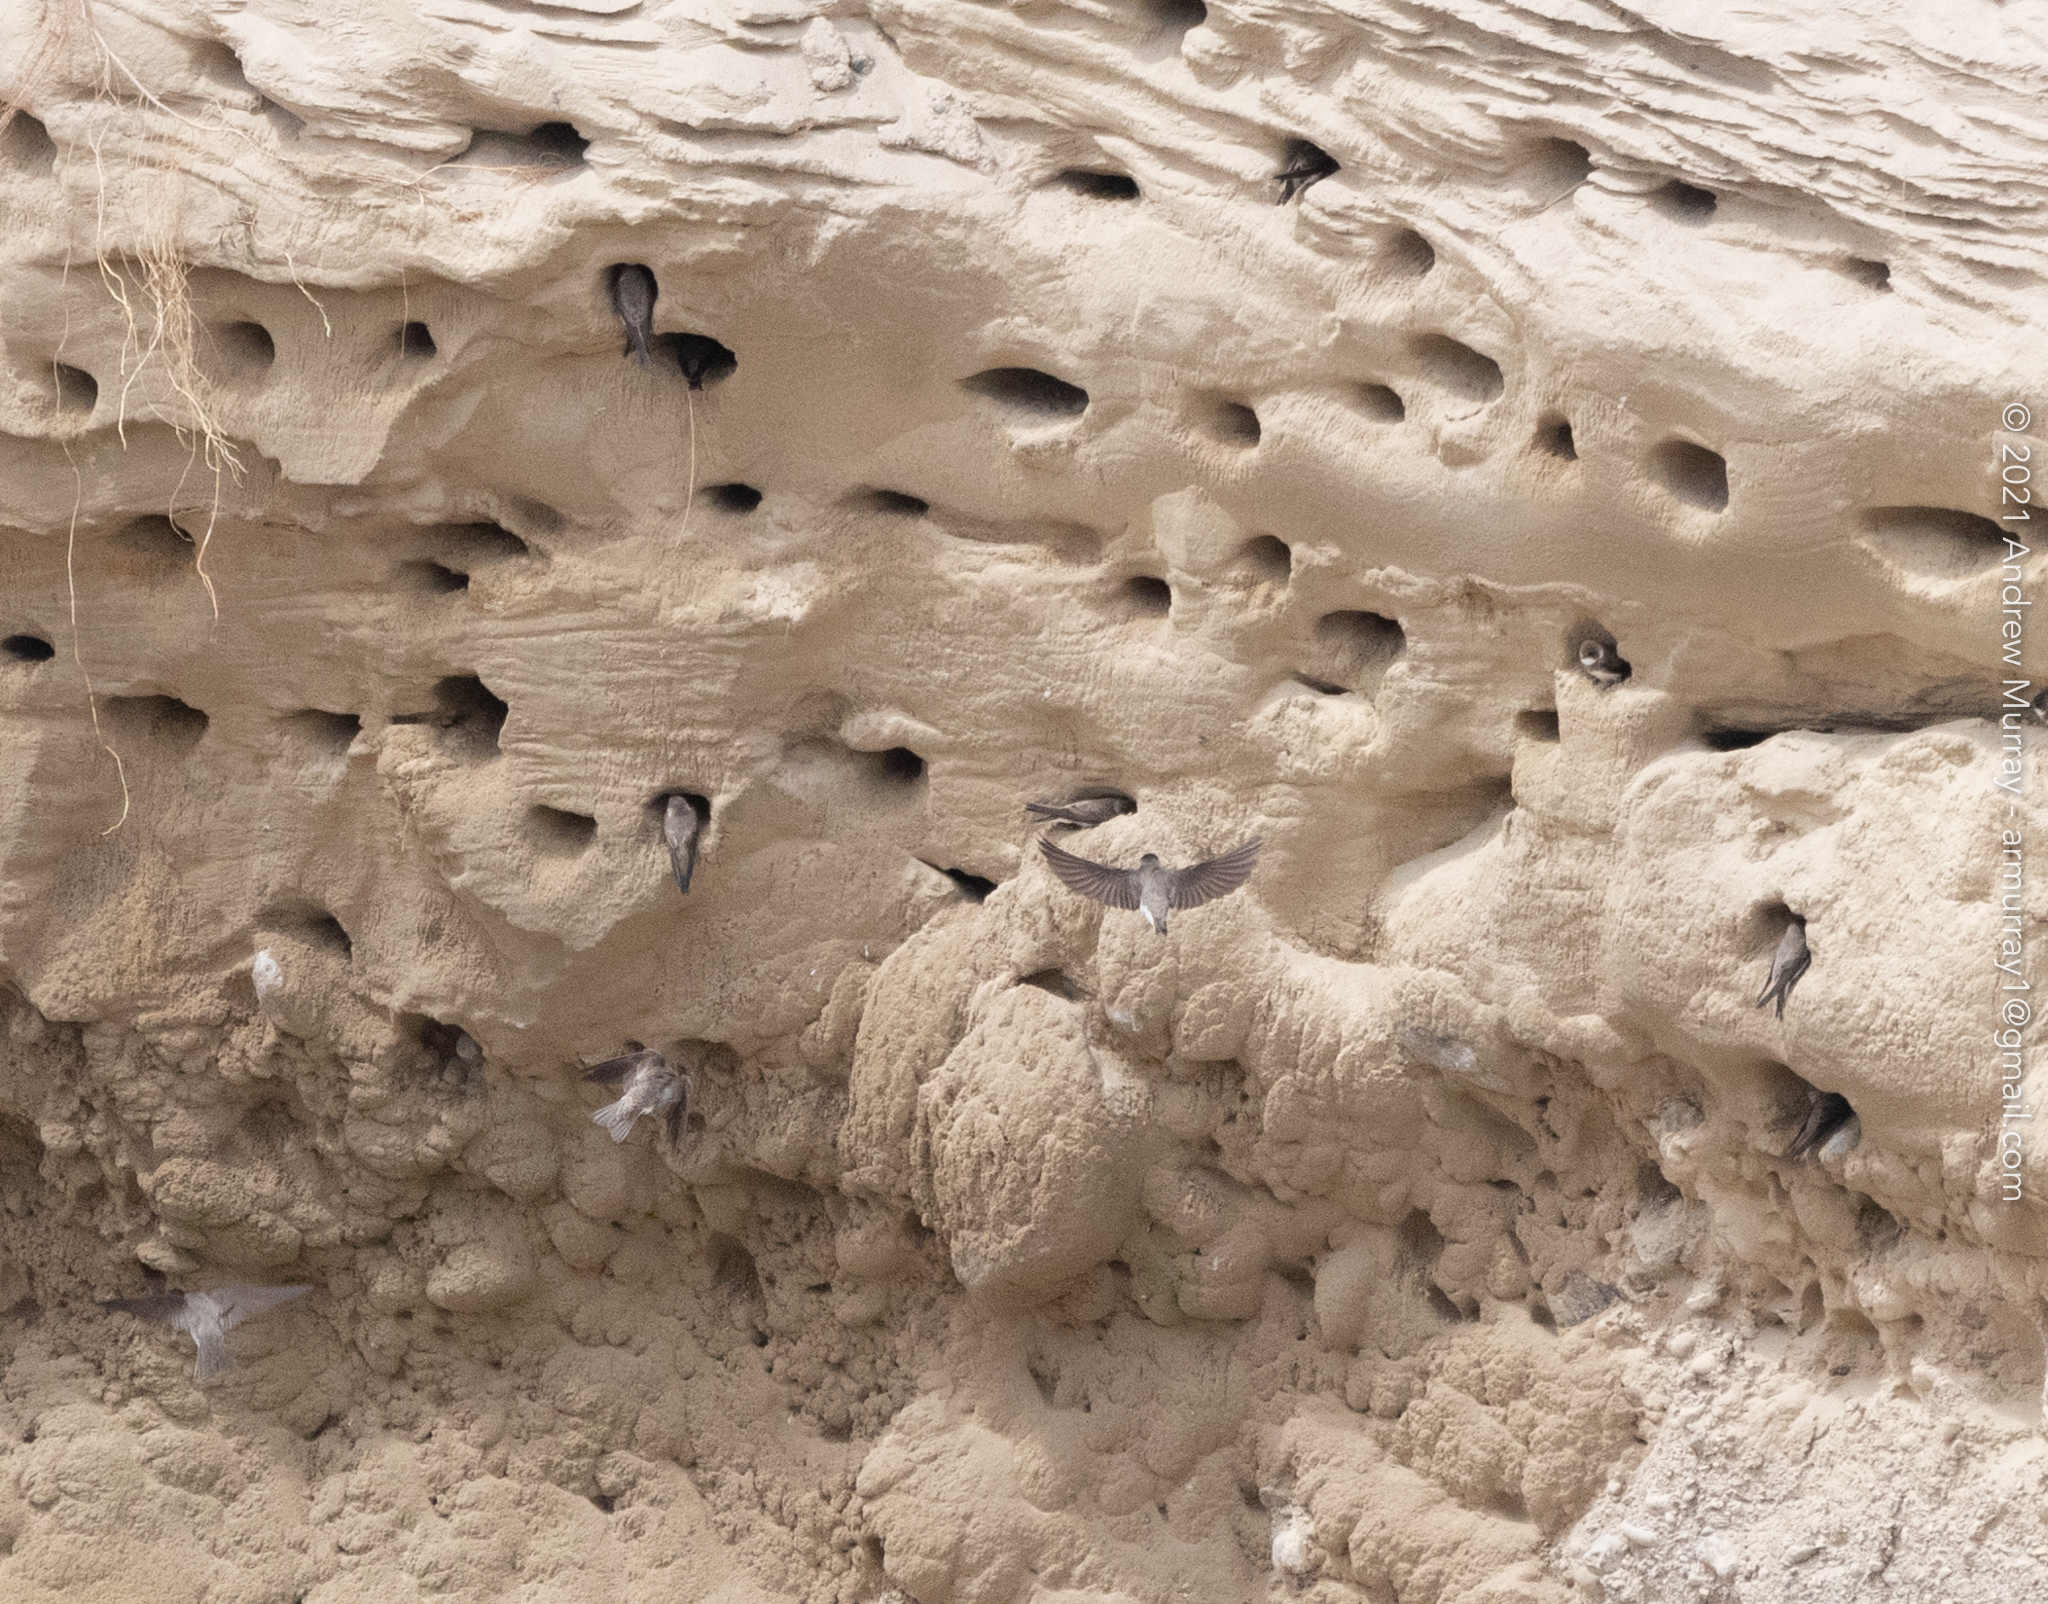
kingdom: Animalia
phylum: Chordata
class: Aves
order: Passeriformes
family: Hirundinidae
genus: Riparia
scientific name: Riparia riparia
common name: Sand martin
